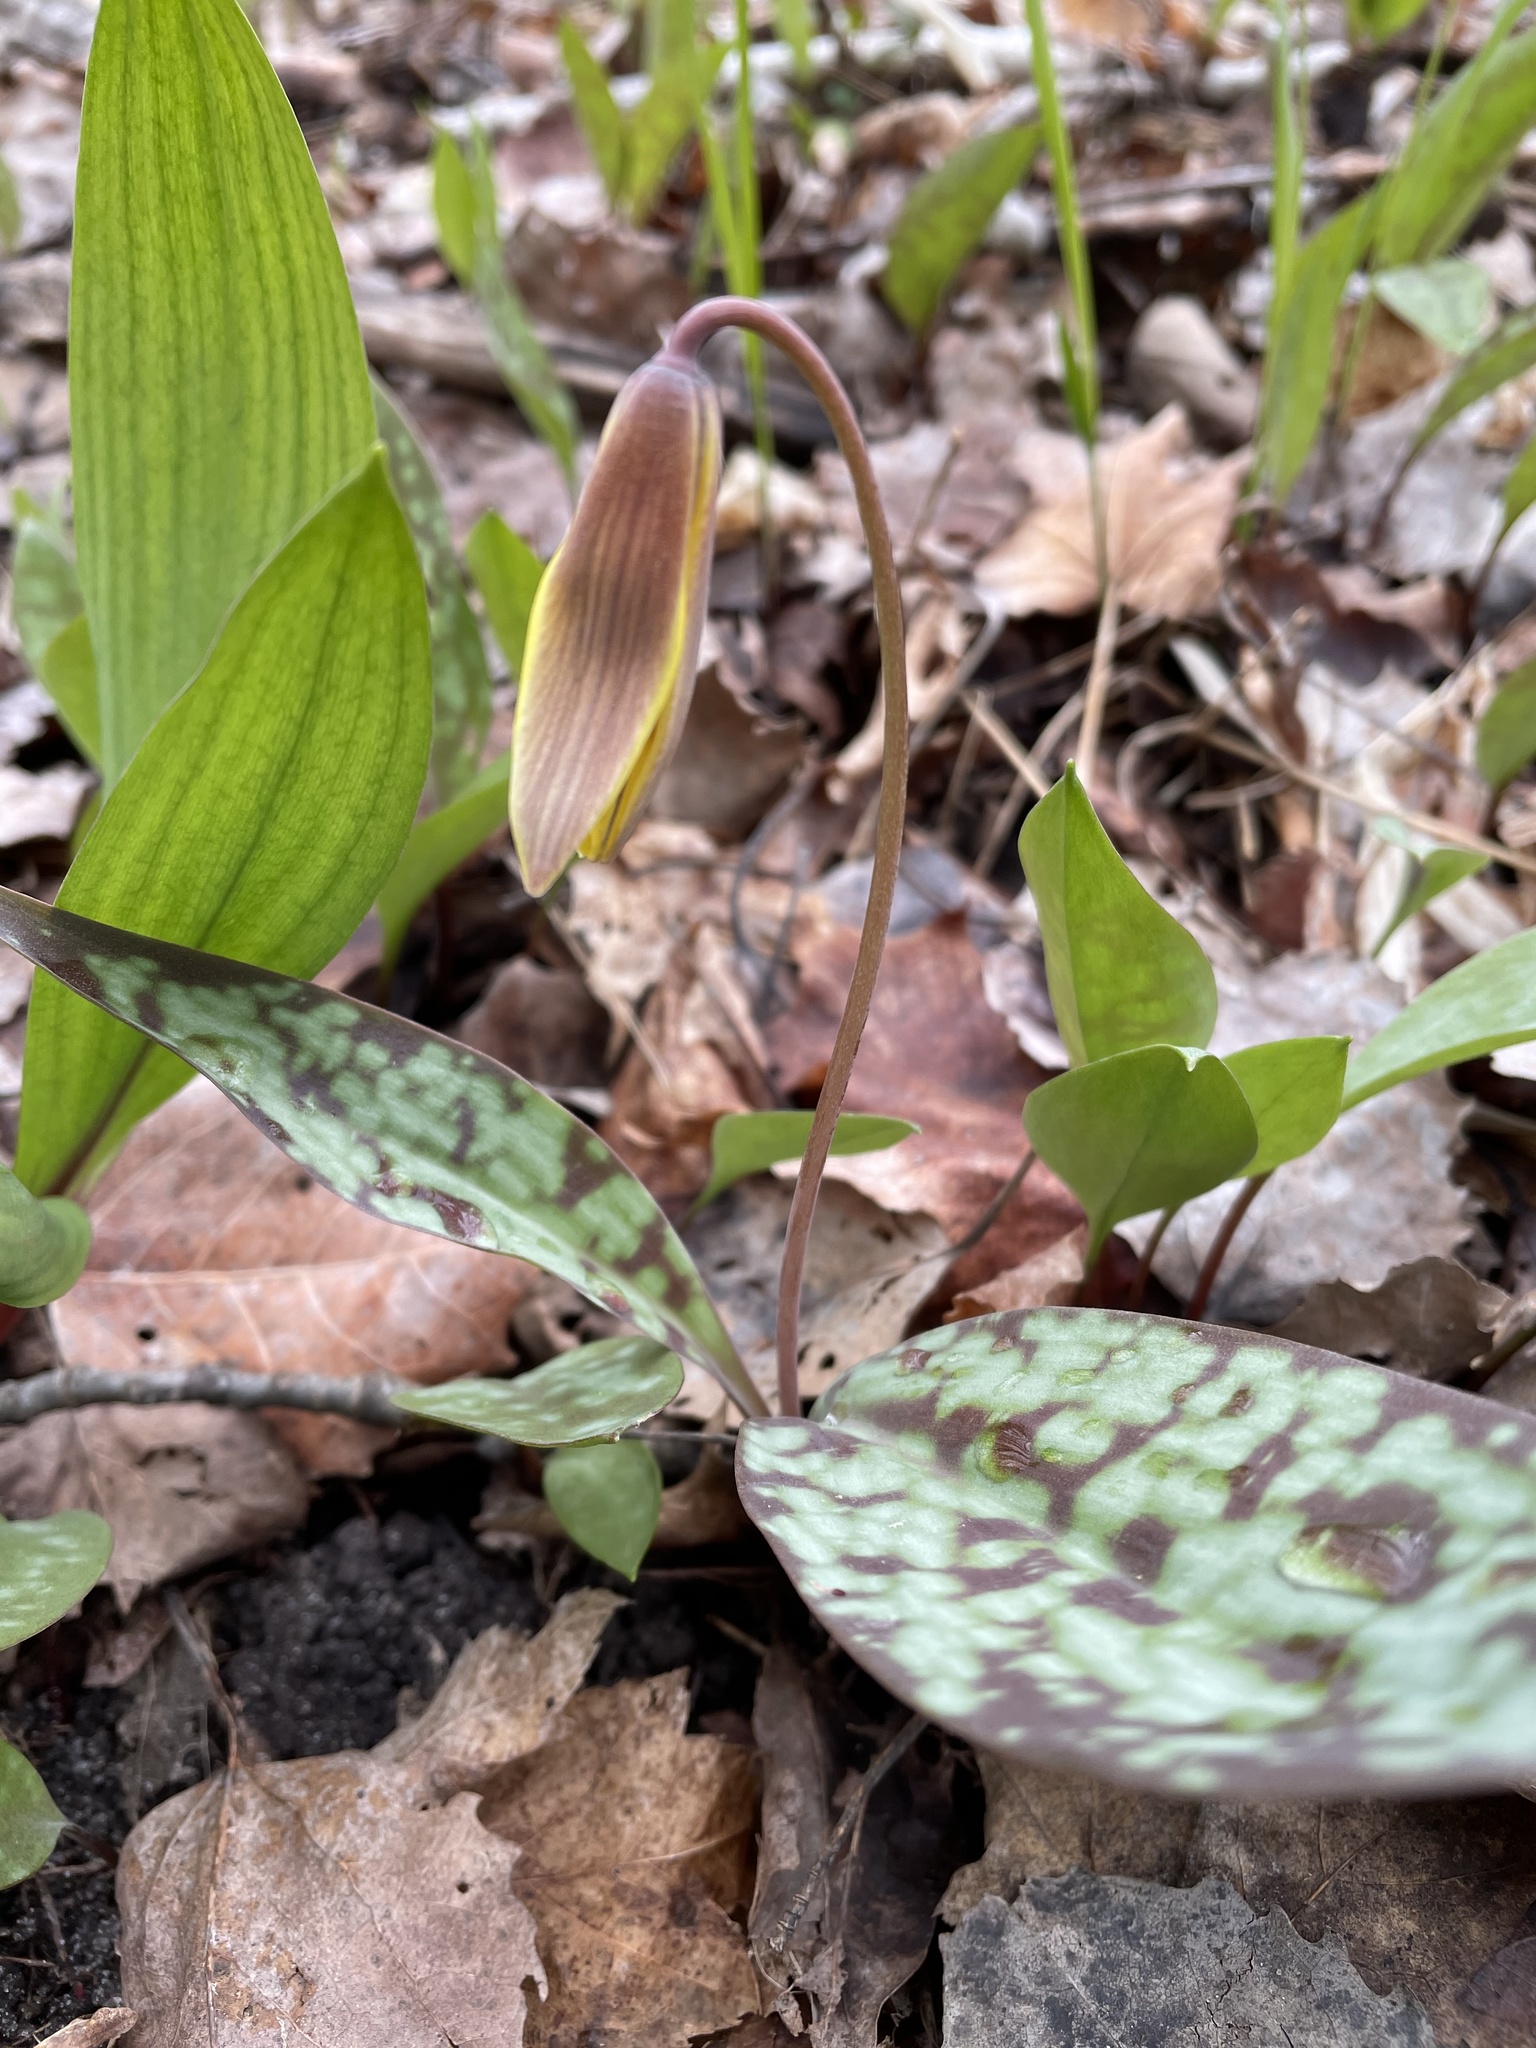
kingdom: Plantae
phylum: Tracheophyta
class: Liliopsida
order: Liliales
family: Liliaceae
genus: Erythronium
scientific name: Erythronium americanum
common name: Yellow adder's-tongue
